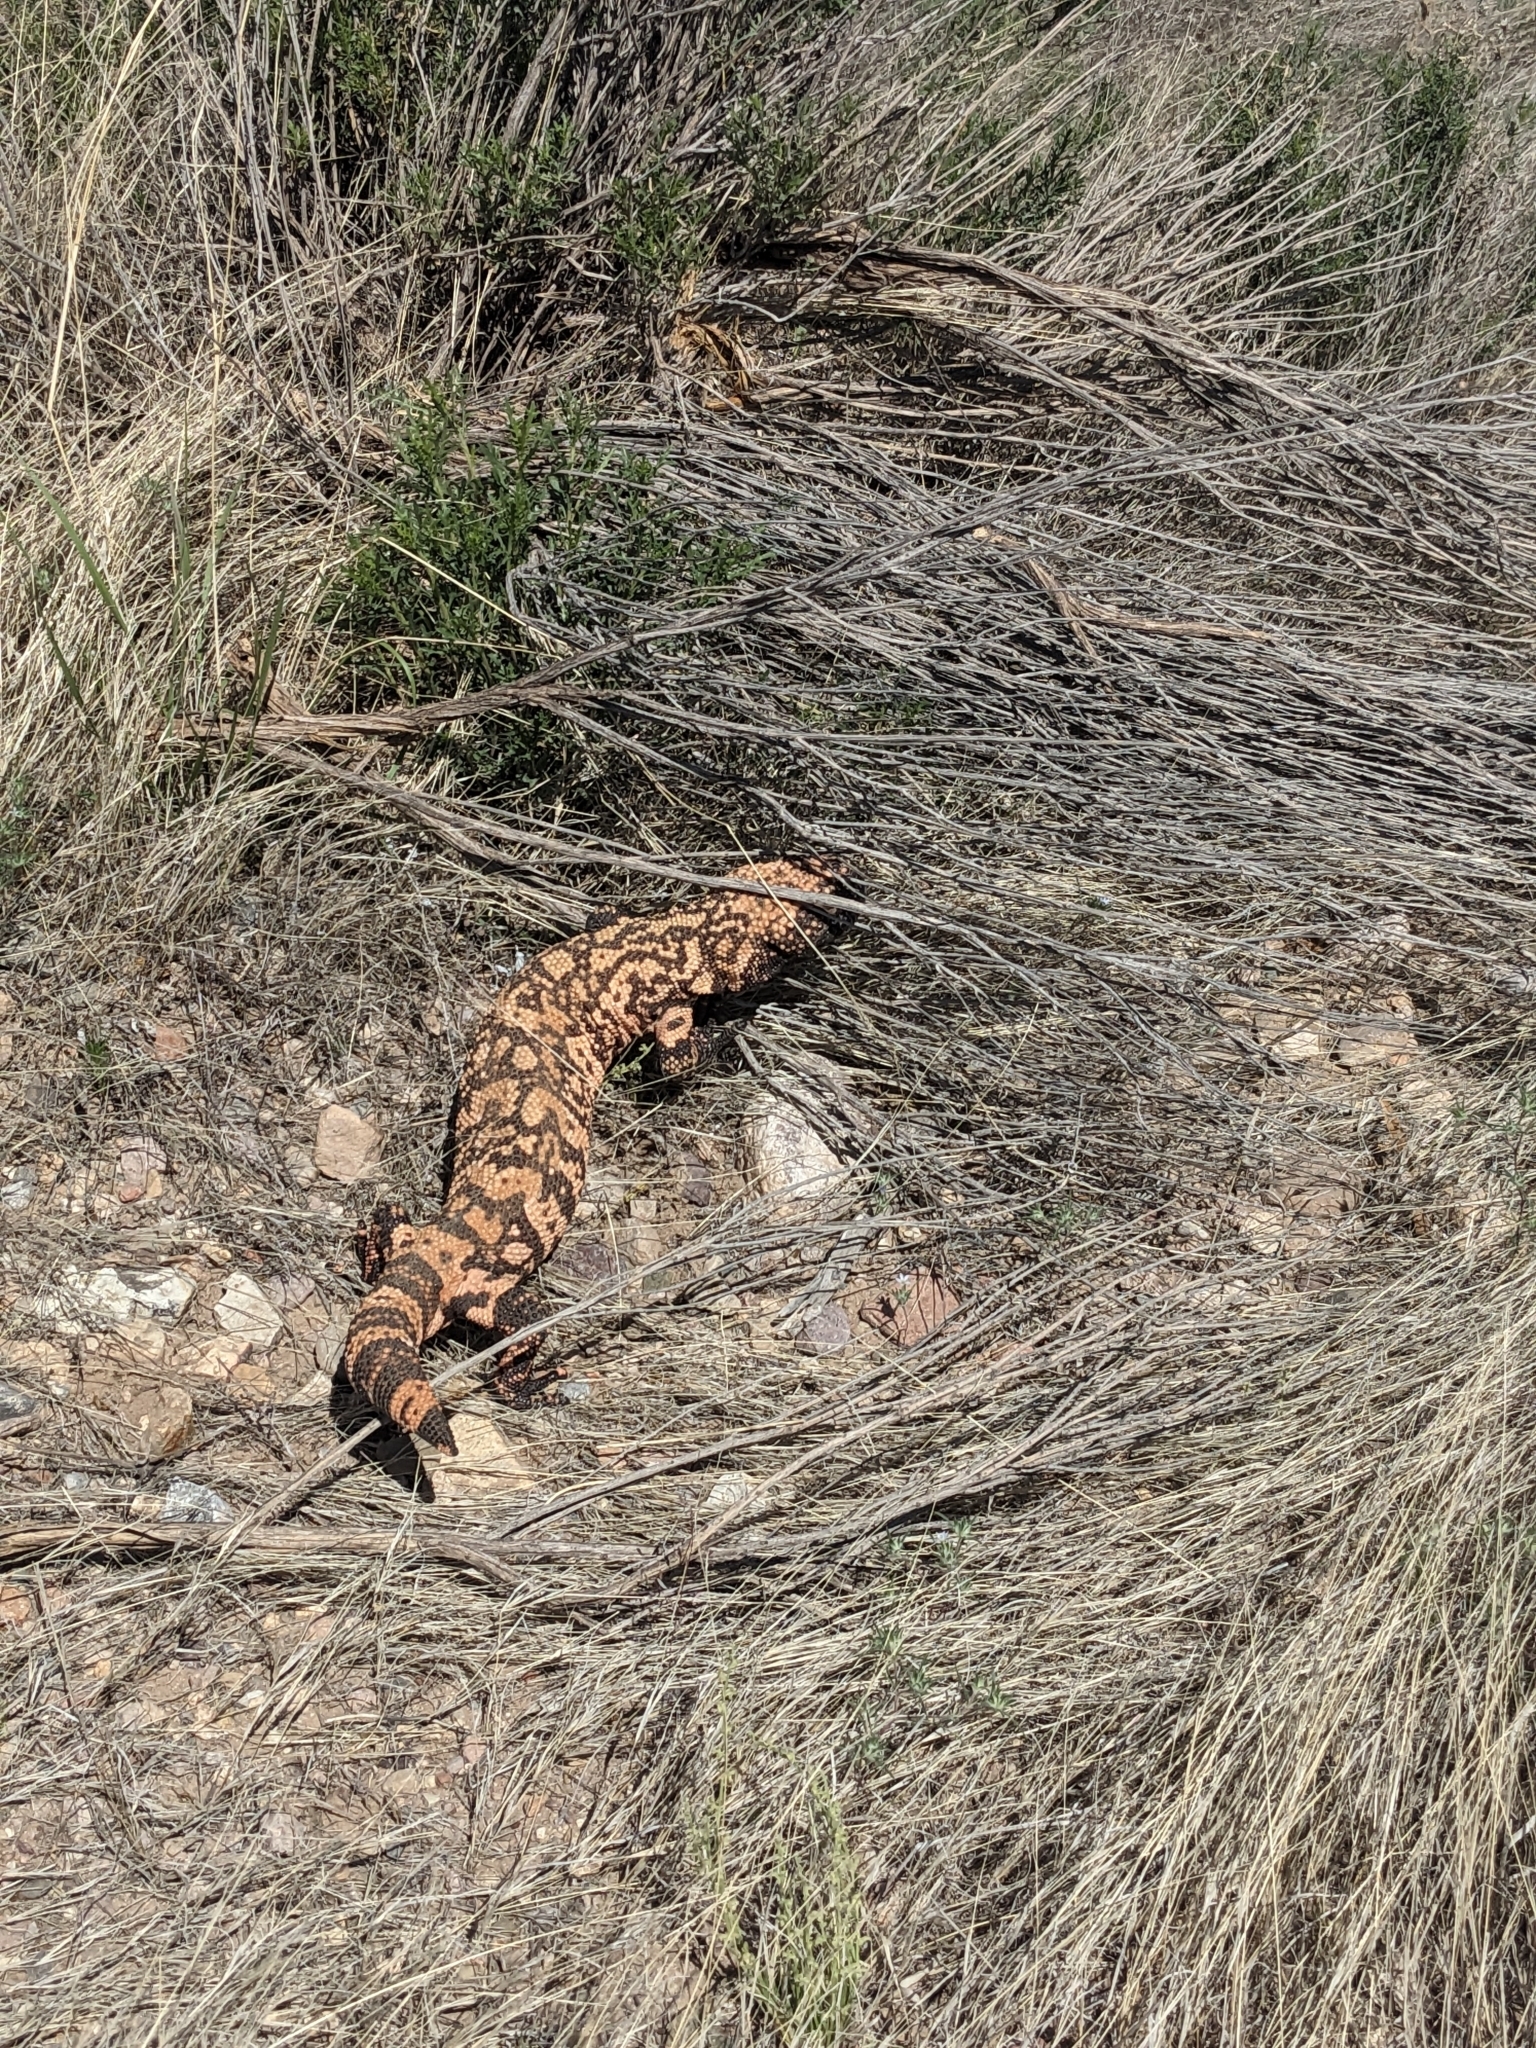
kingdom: Animalia
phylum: Chordata
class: Squamata
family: Helodermatidae
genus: Heloderma
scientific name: Heloderma suspectum
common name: Gila monster
